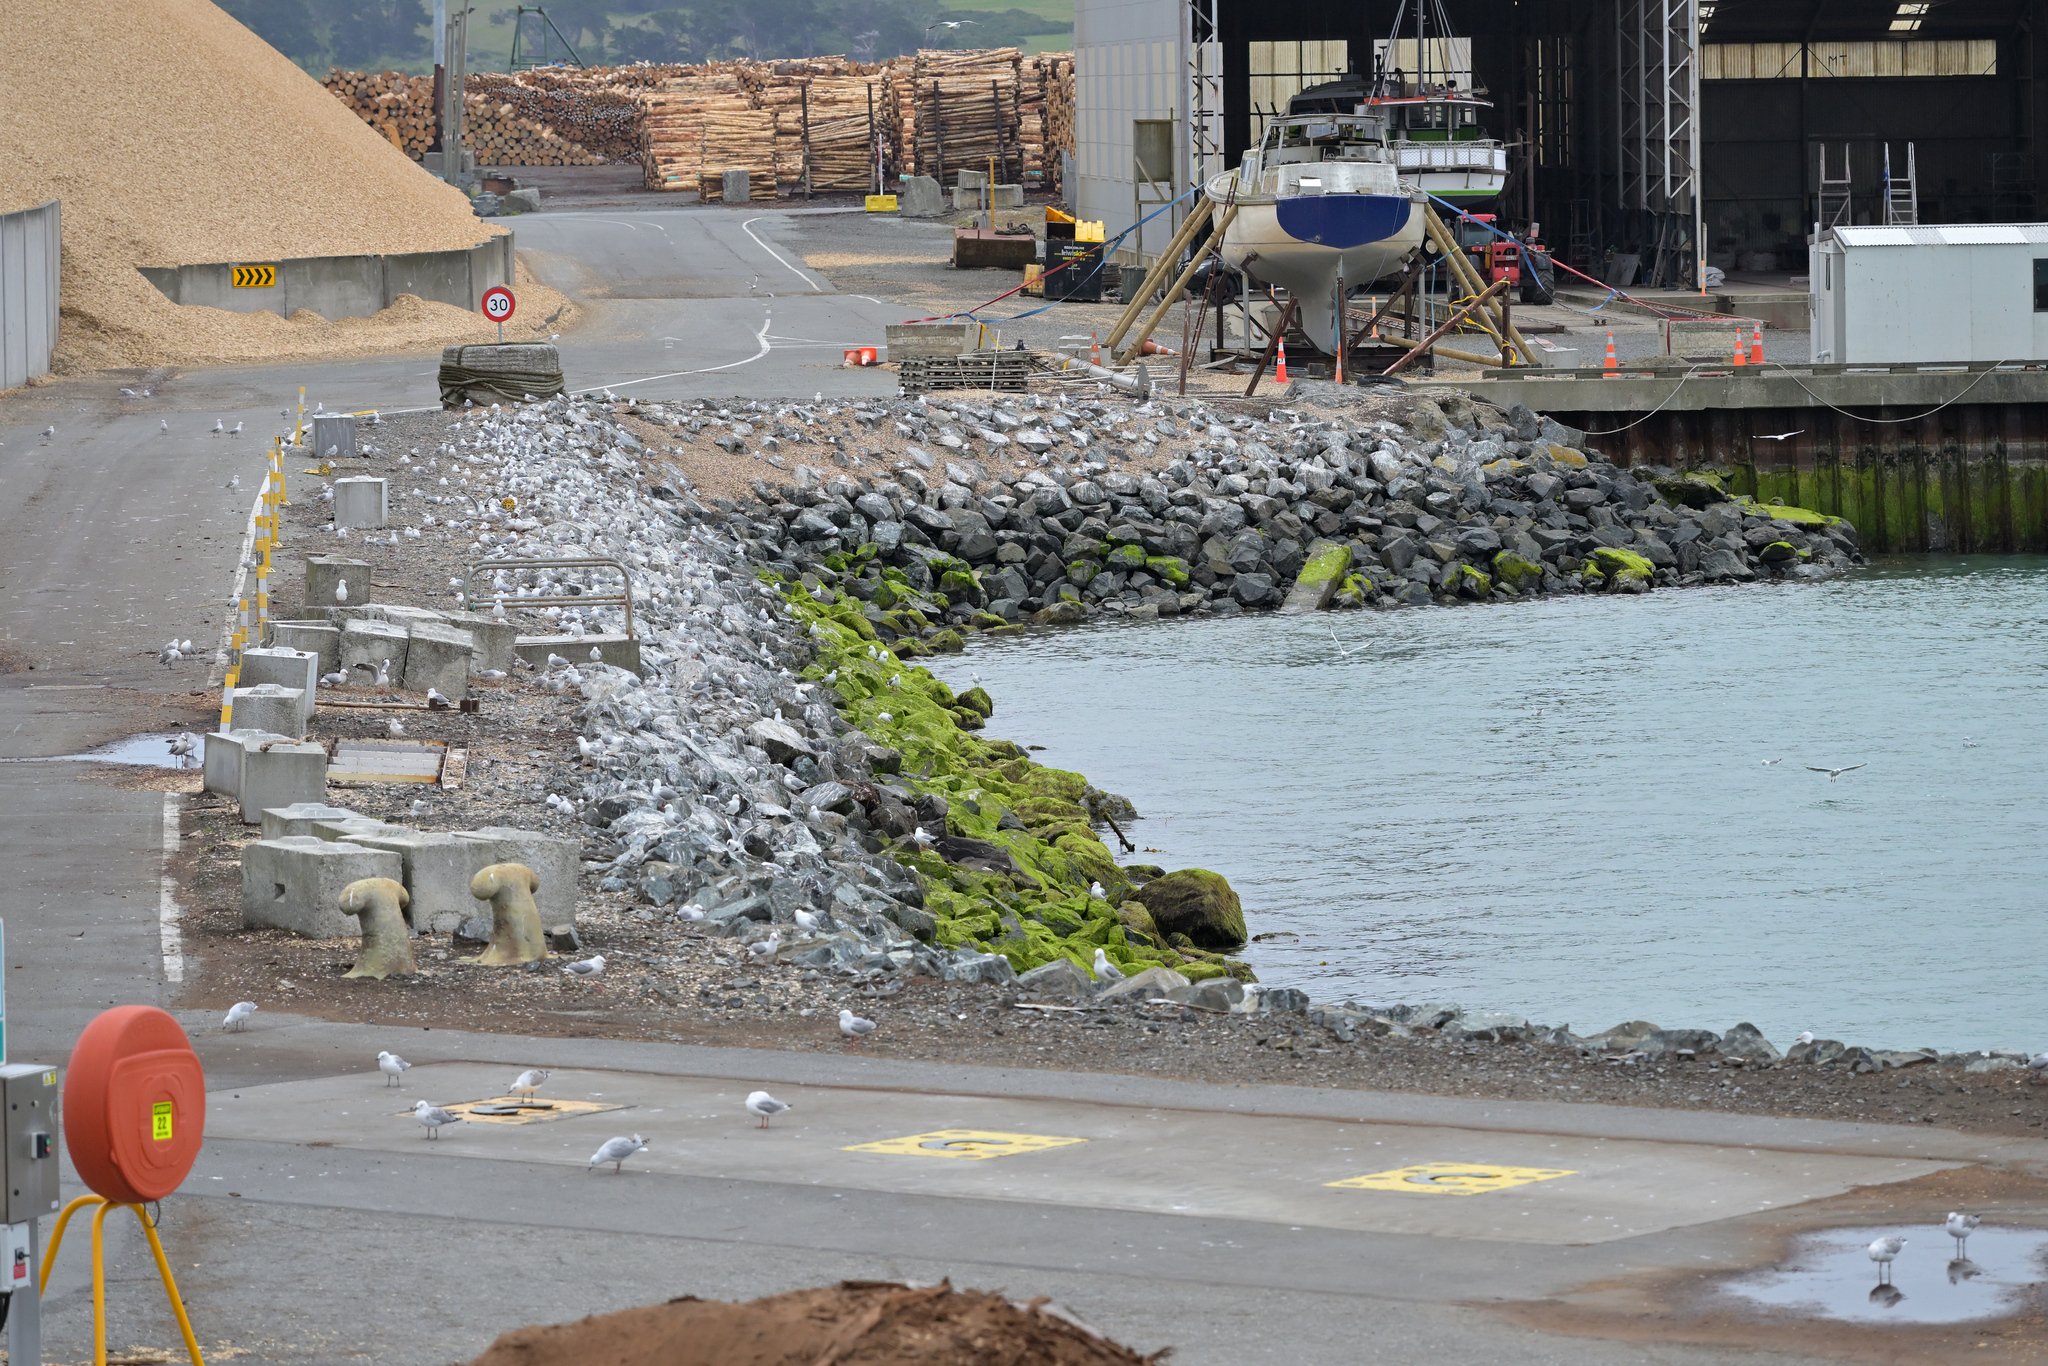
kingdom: Animalia
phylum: Chordata
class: Aves
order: Charadriiformes
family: Laridae
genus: Chroicocephalus
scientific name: Chroicocephalus novaehollandiae
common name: Silver gull
